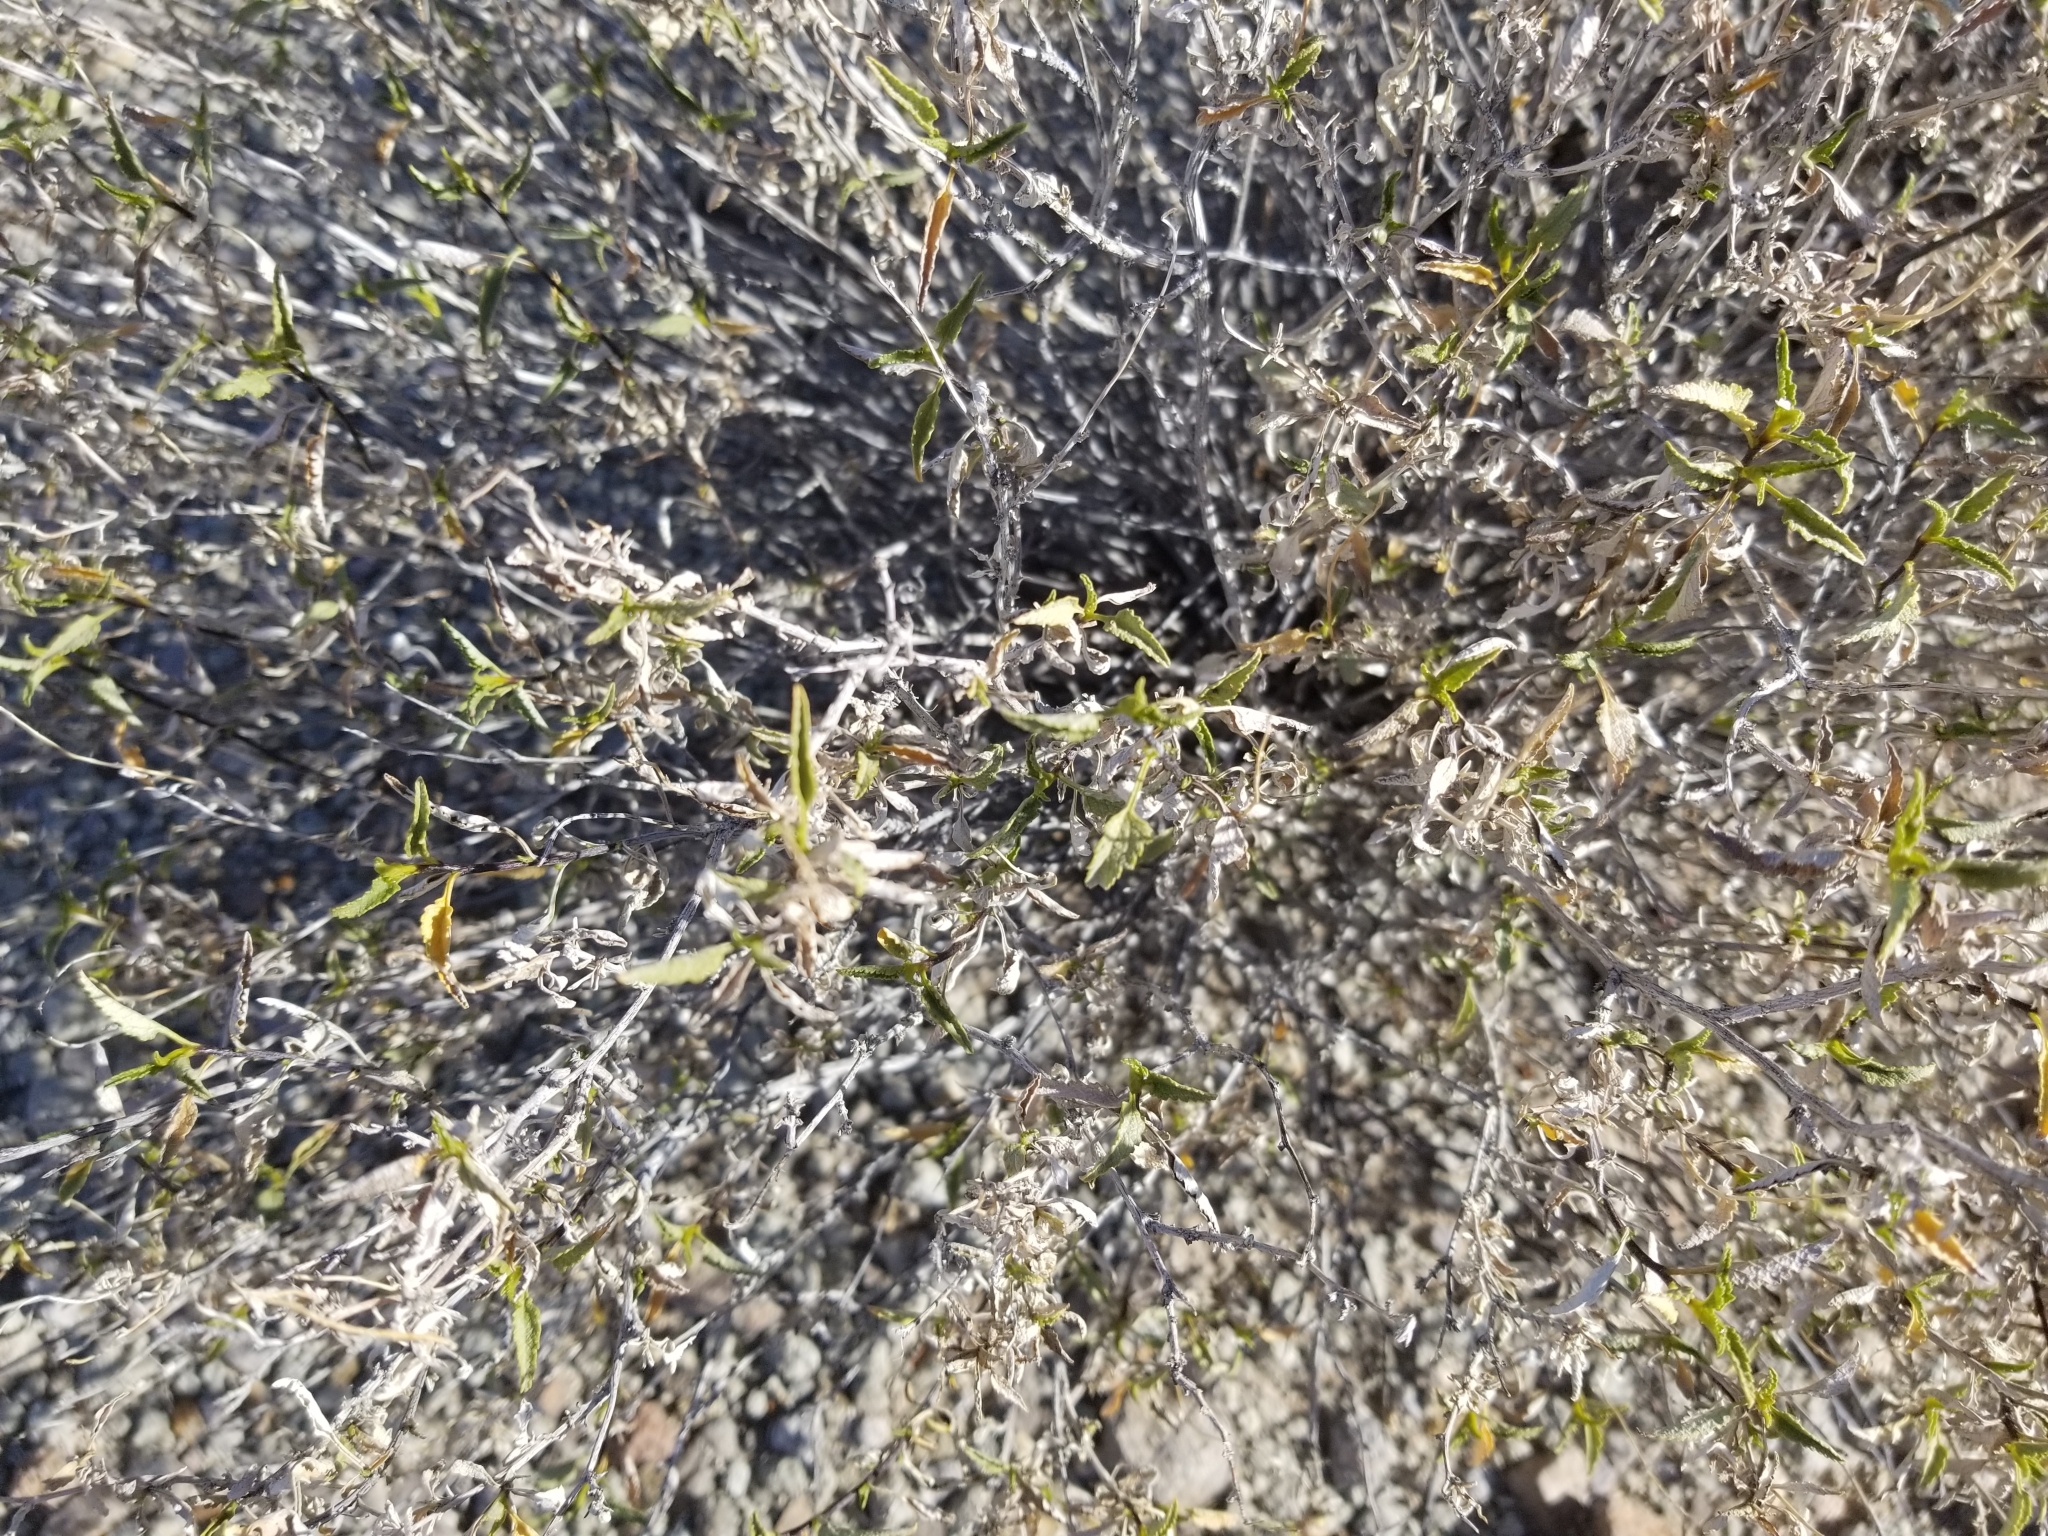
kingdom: Plantae
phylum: Tracheophyta
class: Magnoliopsida
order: Asterales
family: Asteraceae
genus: Ambrosia
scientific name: Ambrosia deltoidea
